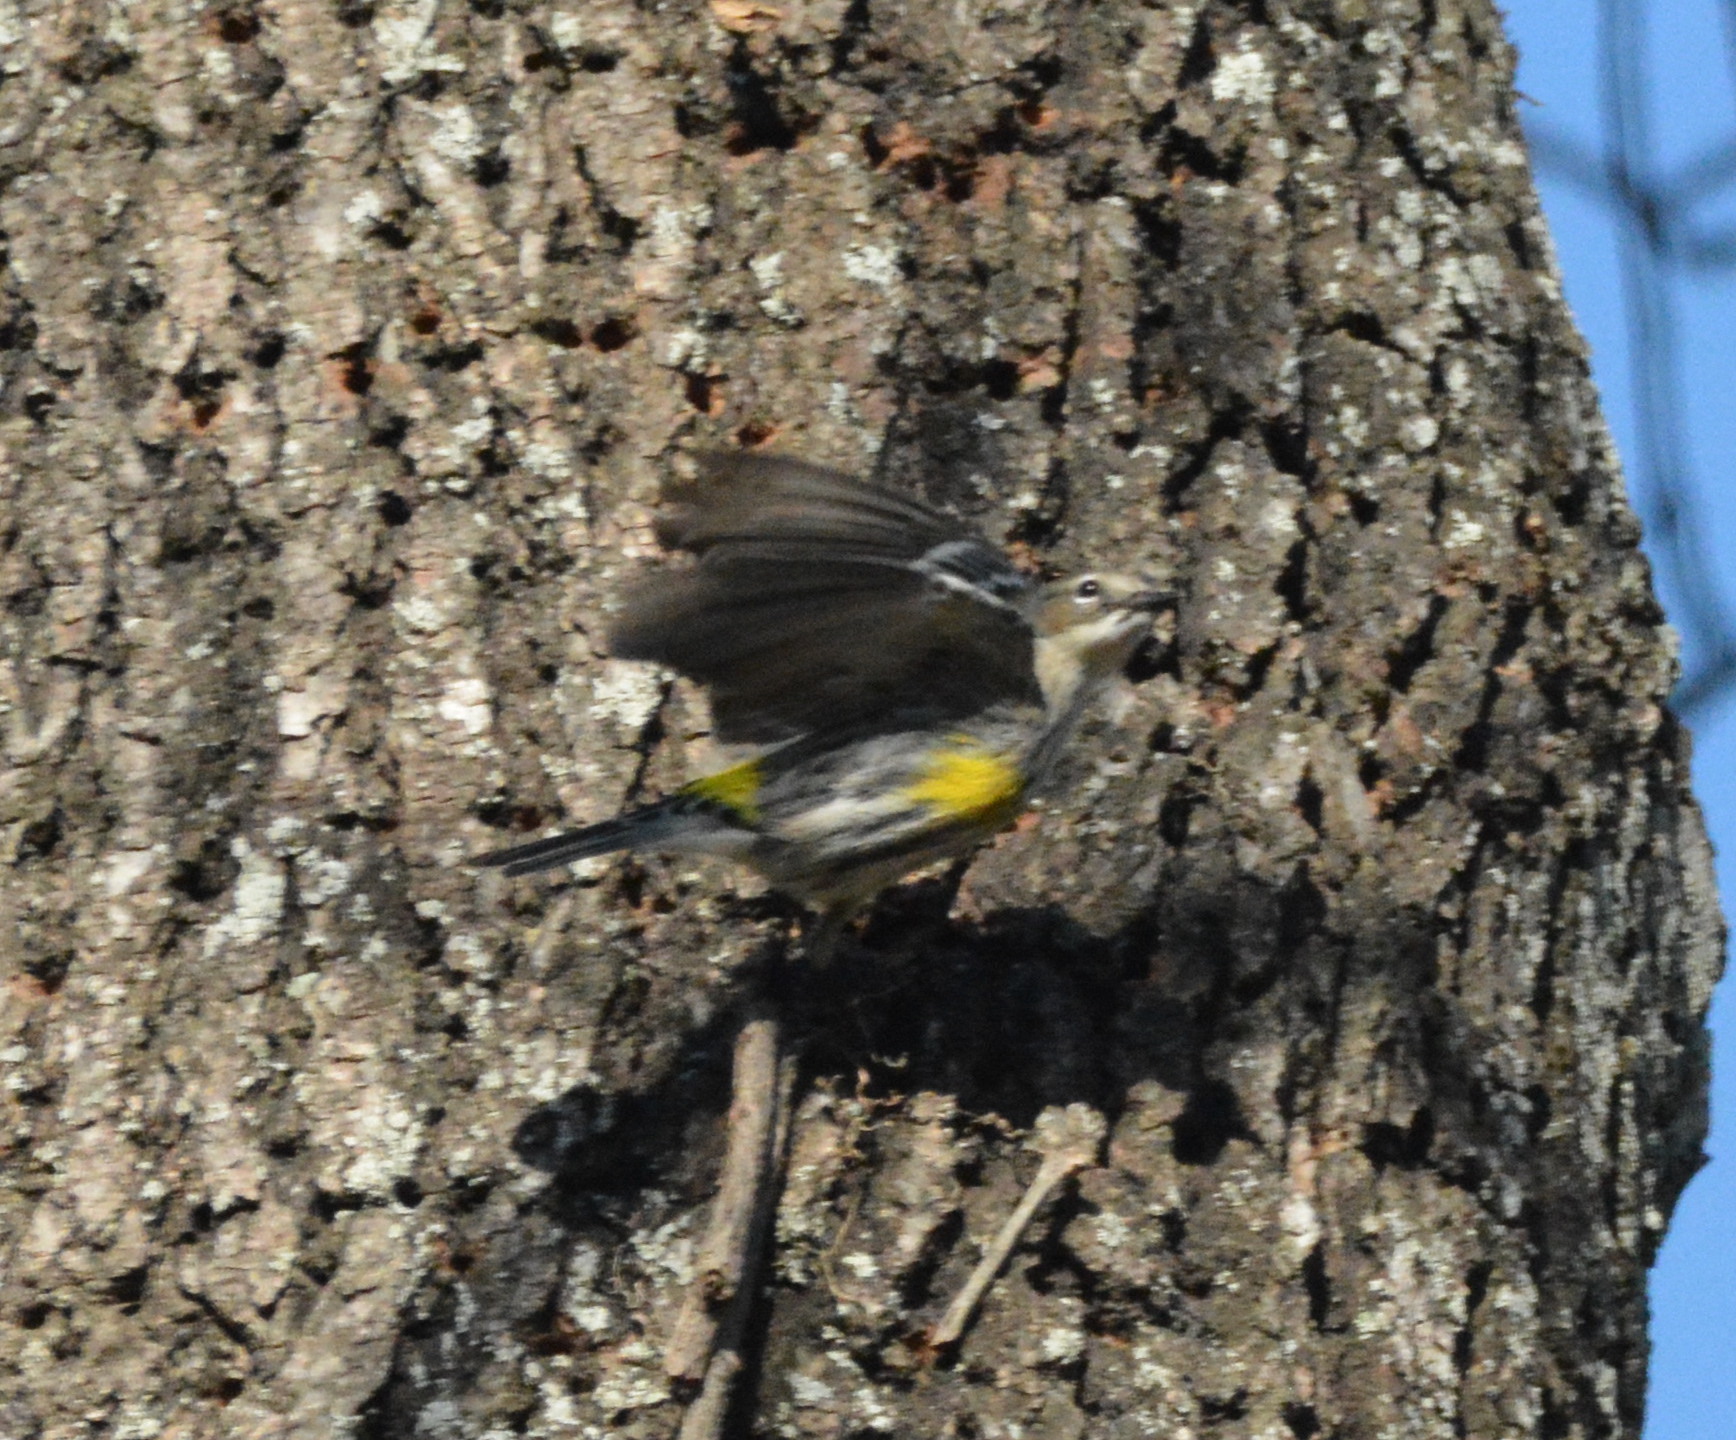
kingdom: Animalia
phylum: Chordata
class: Aves
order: Passeriformes
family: Parulidae
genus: Setophaga
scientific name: Setophaga coronata
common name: Myrtle warbler
